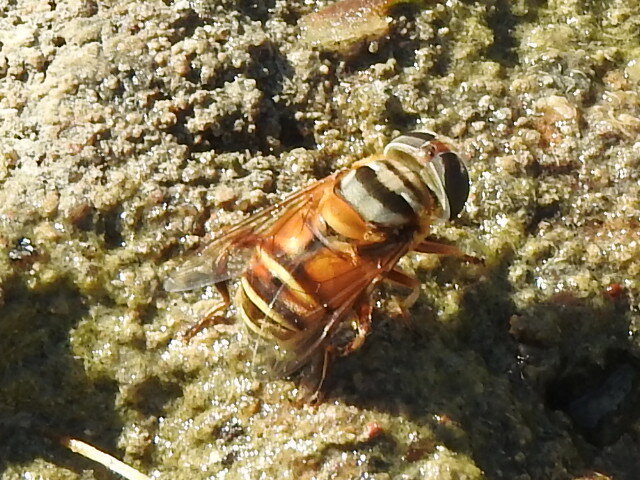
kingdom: Animalia
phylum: Arthropoda
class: Insecta
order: Diptera
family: Syrphidae
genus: Palpada
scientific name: Palpada vinetorum
